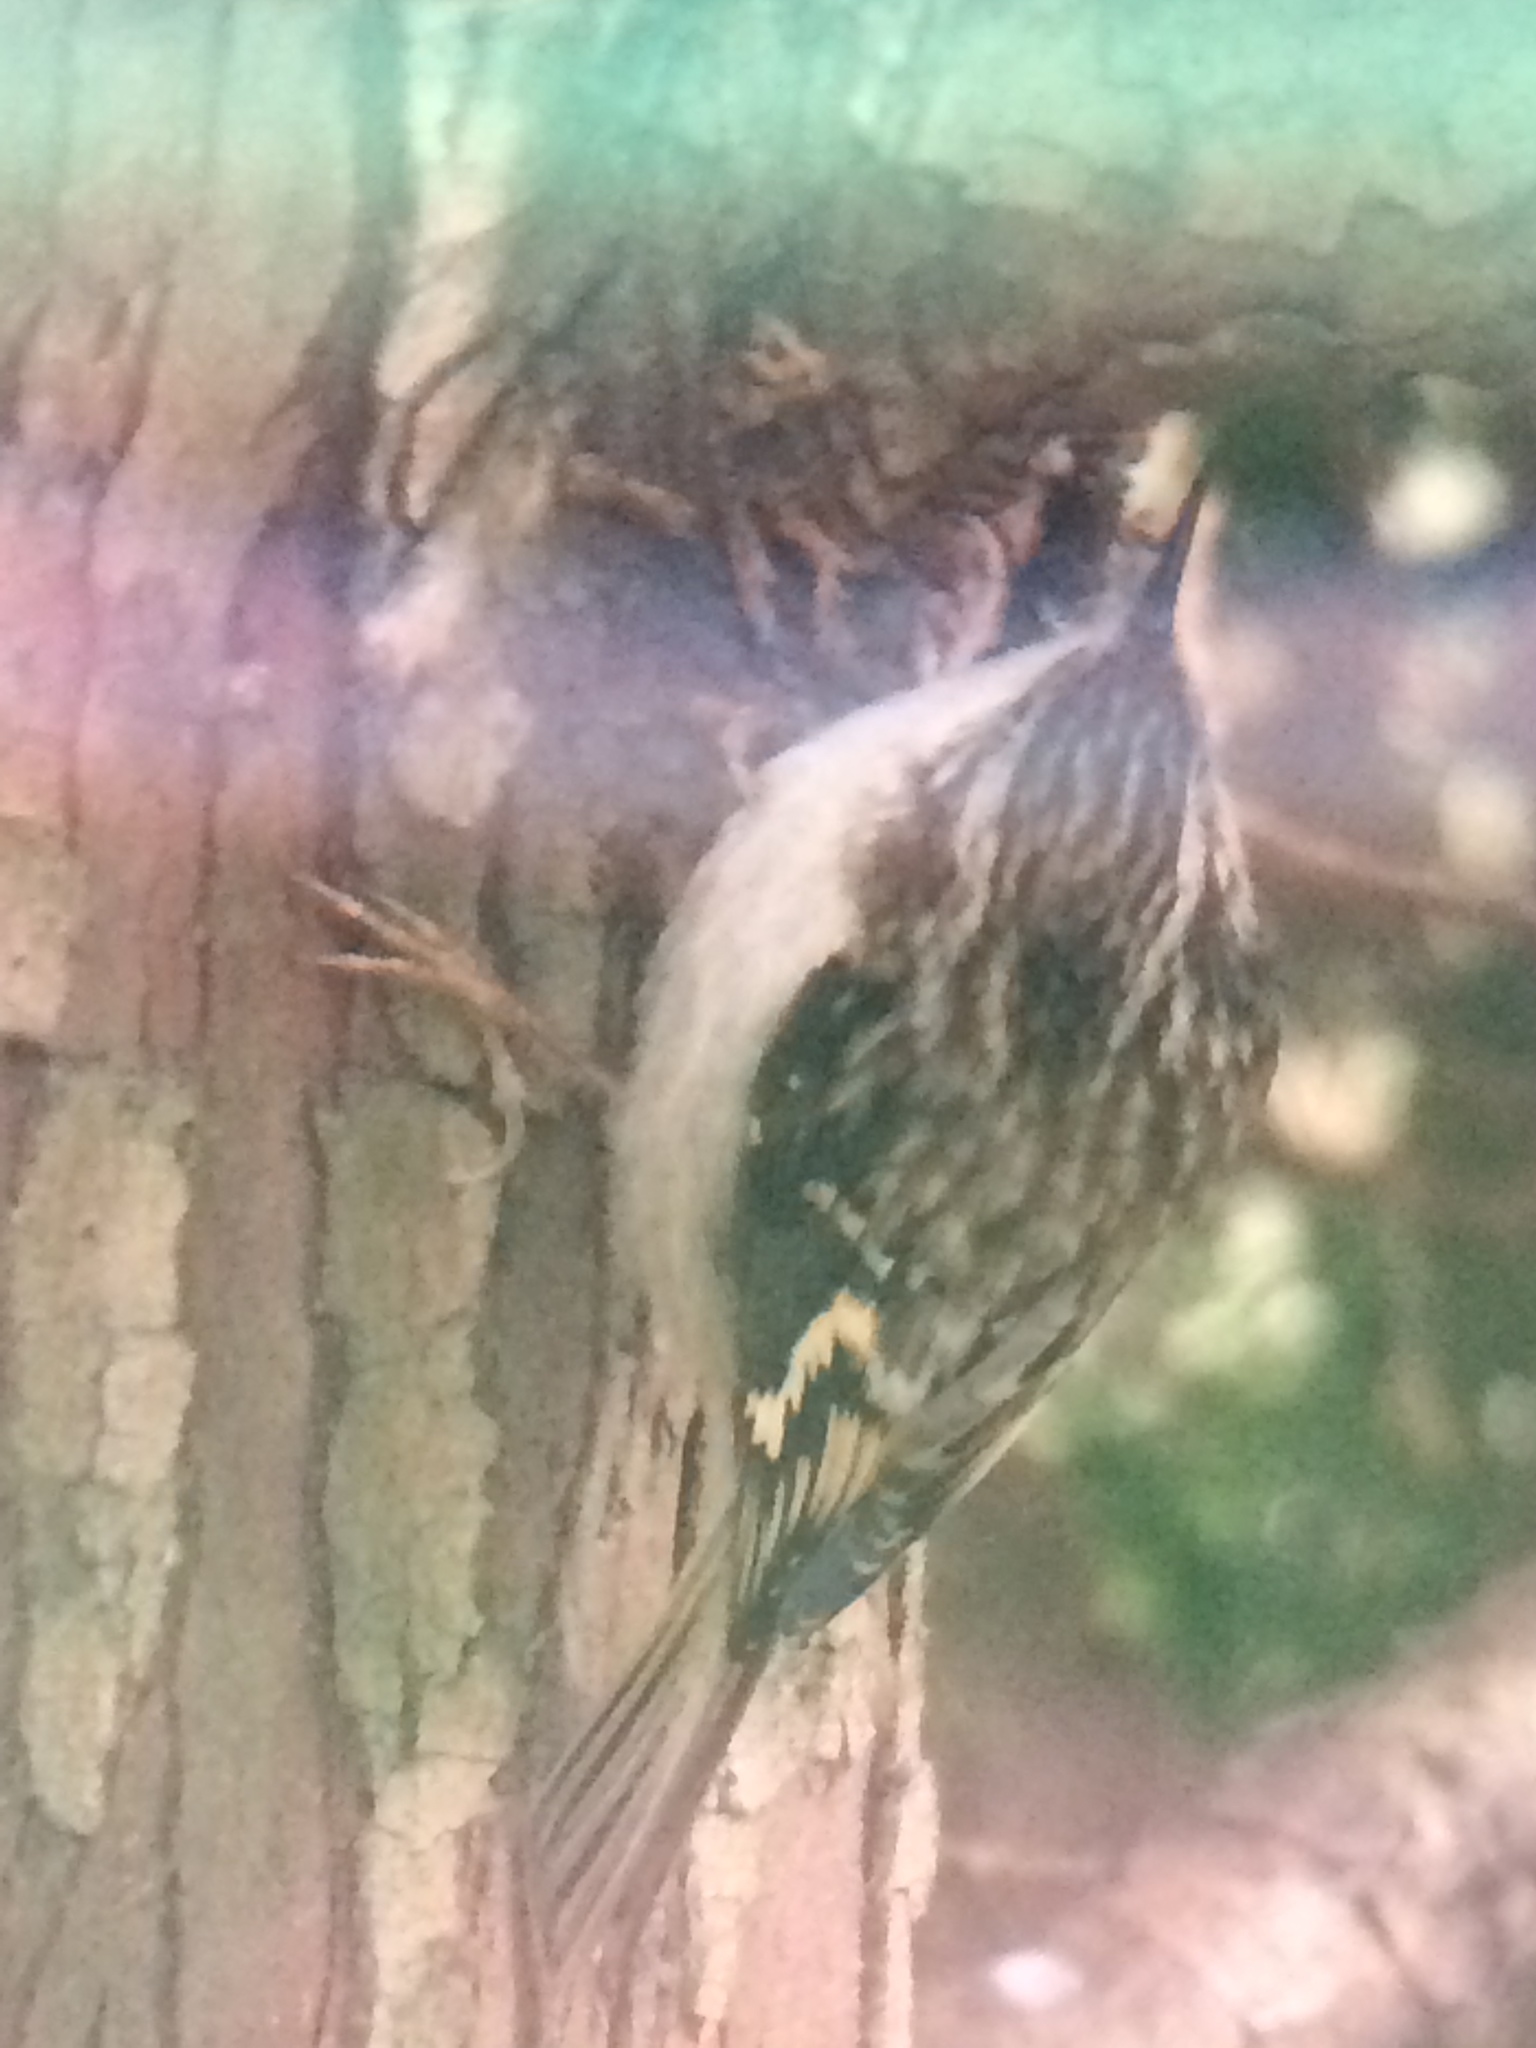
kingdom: Animalia
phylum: Chordata
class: Aves
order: Passeriformes
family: Certhiidae
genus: Certhia
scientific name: Certhia americana
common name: Brown creeper
